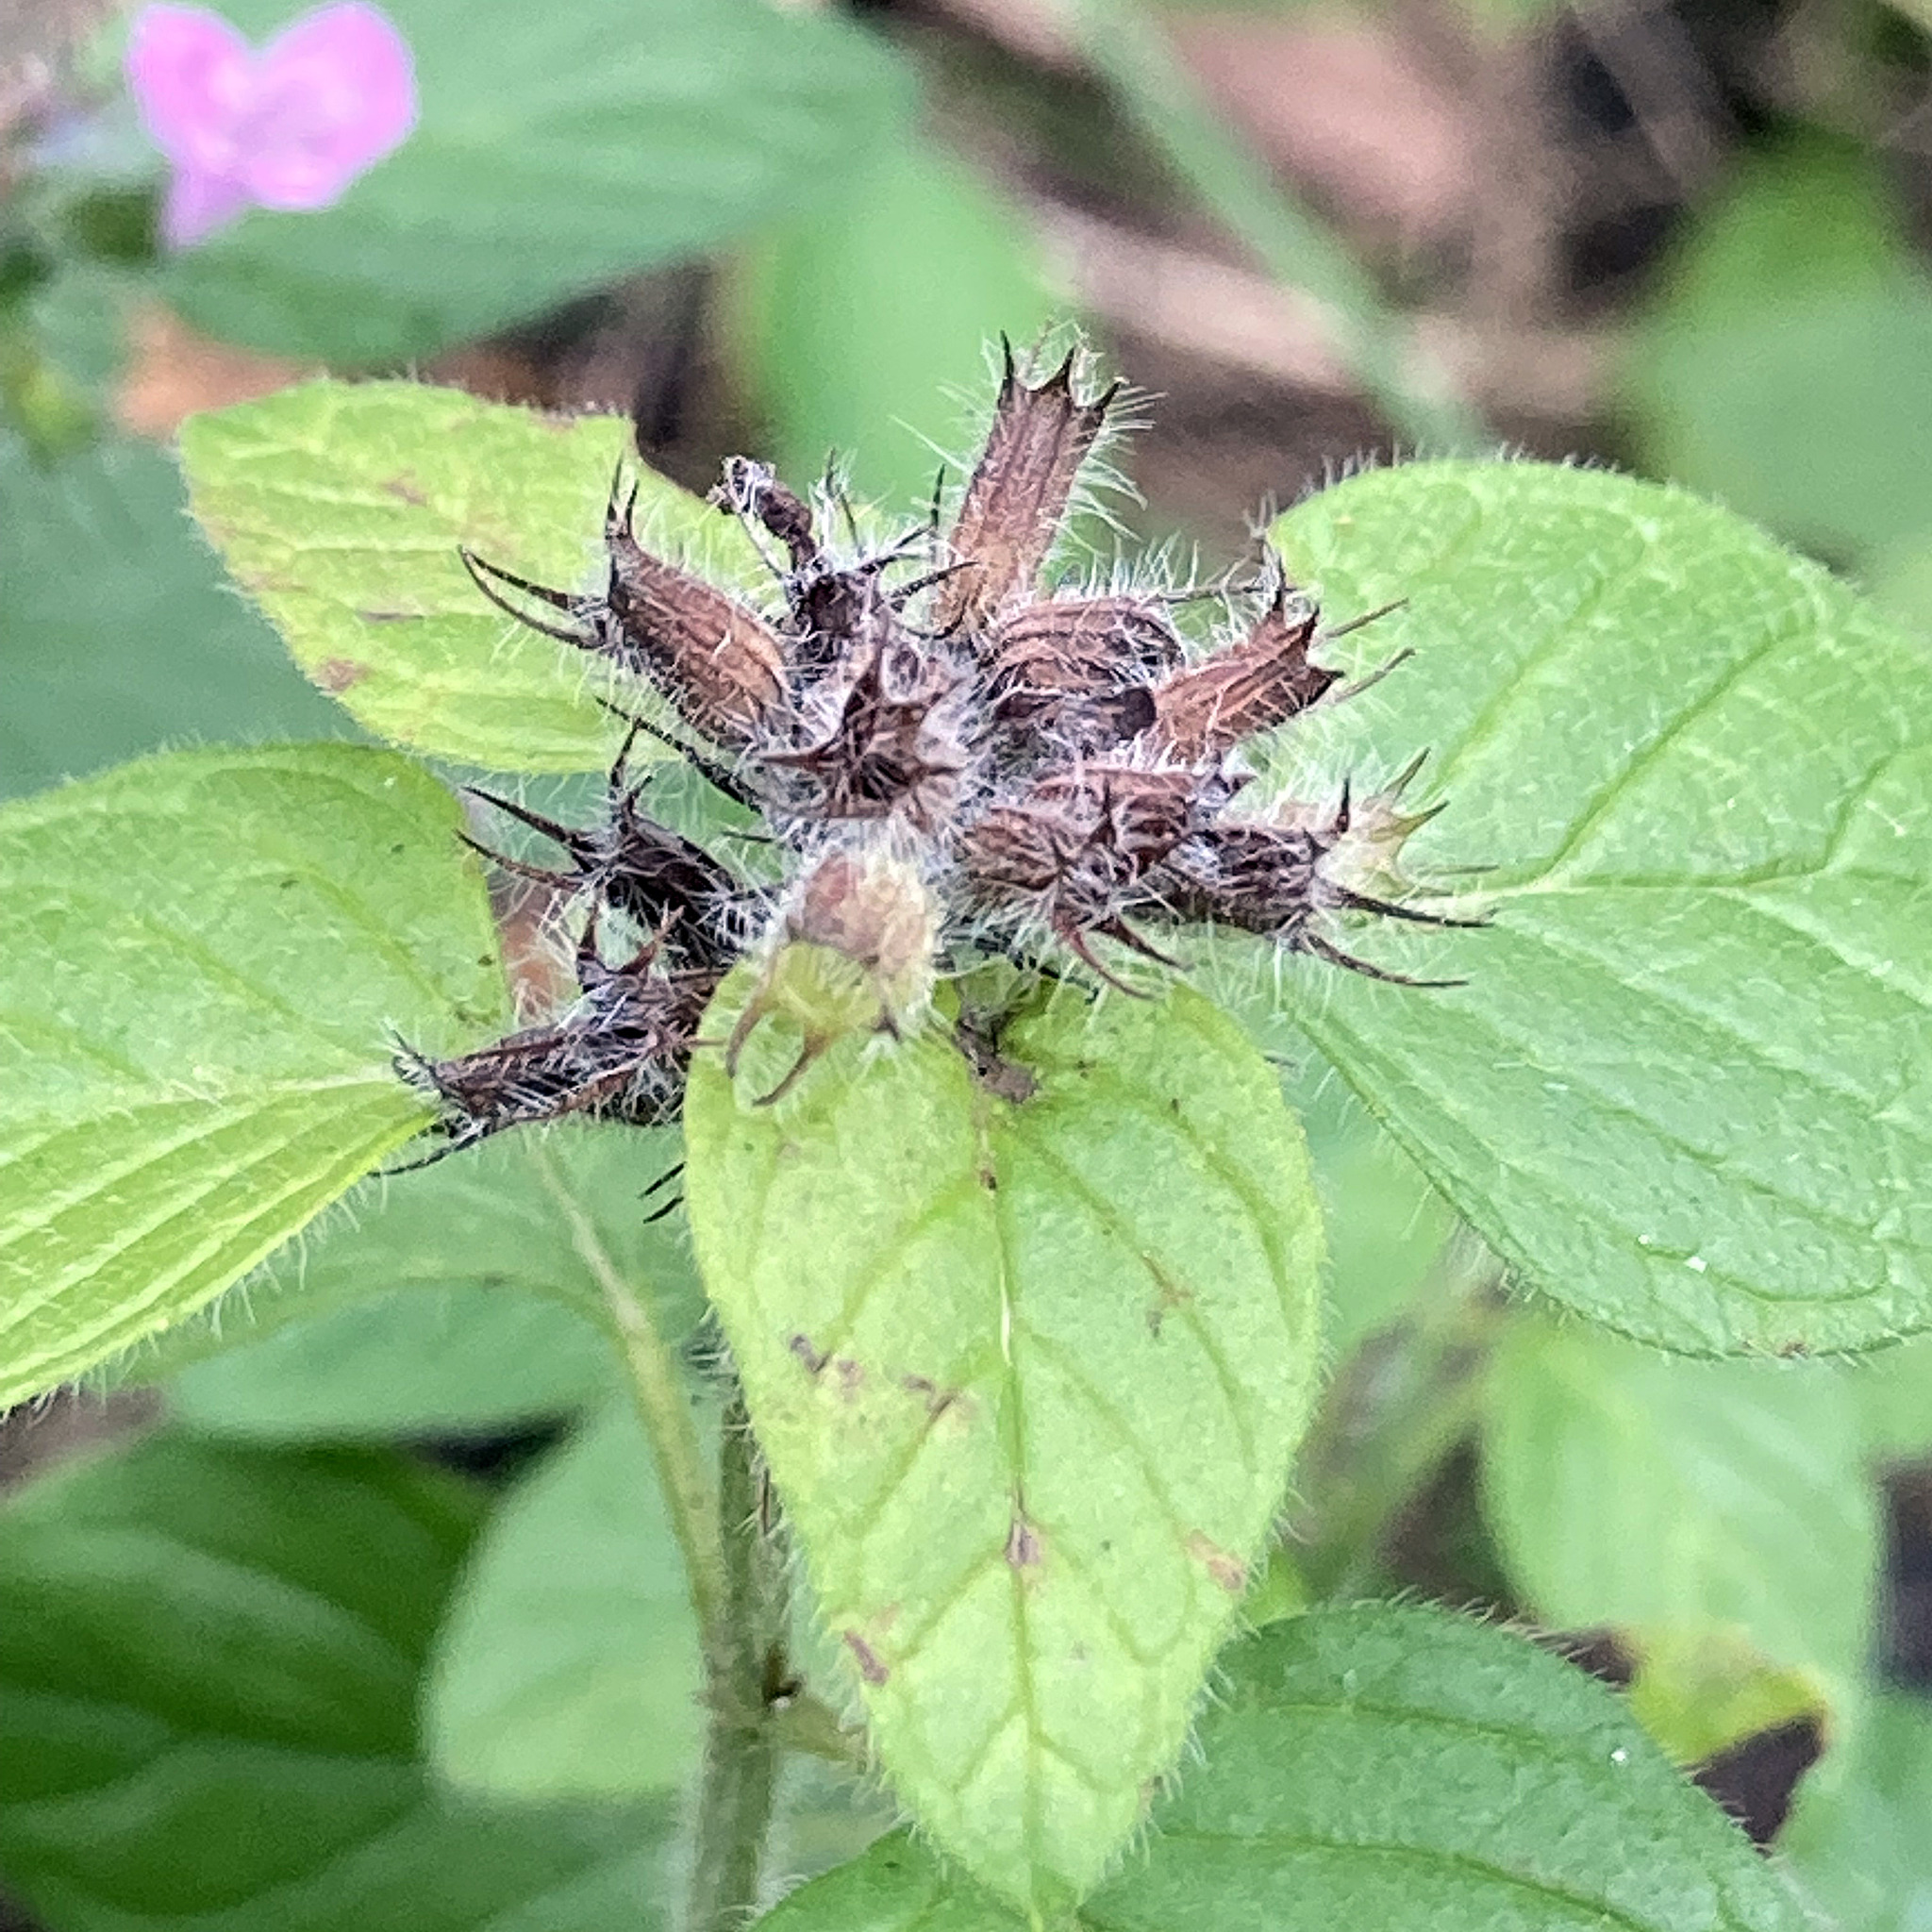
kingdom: Plantae
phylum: Tracheophyta
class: Magnoliopsida
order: Lamiales
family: Lamiaceae
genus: Clinopodium
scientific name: Clinopodium vulgare
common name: Wild basil
